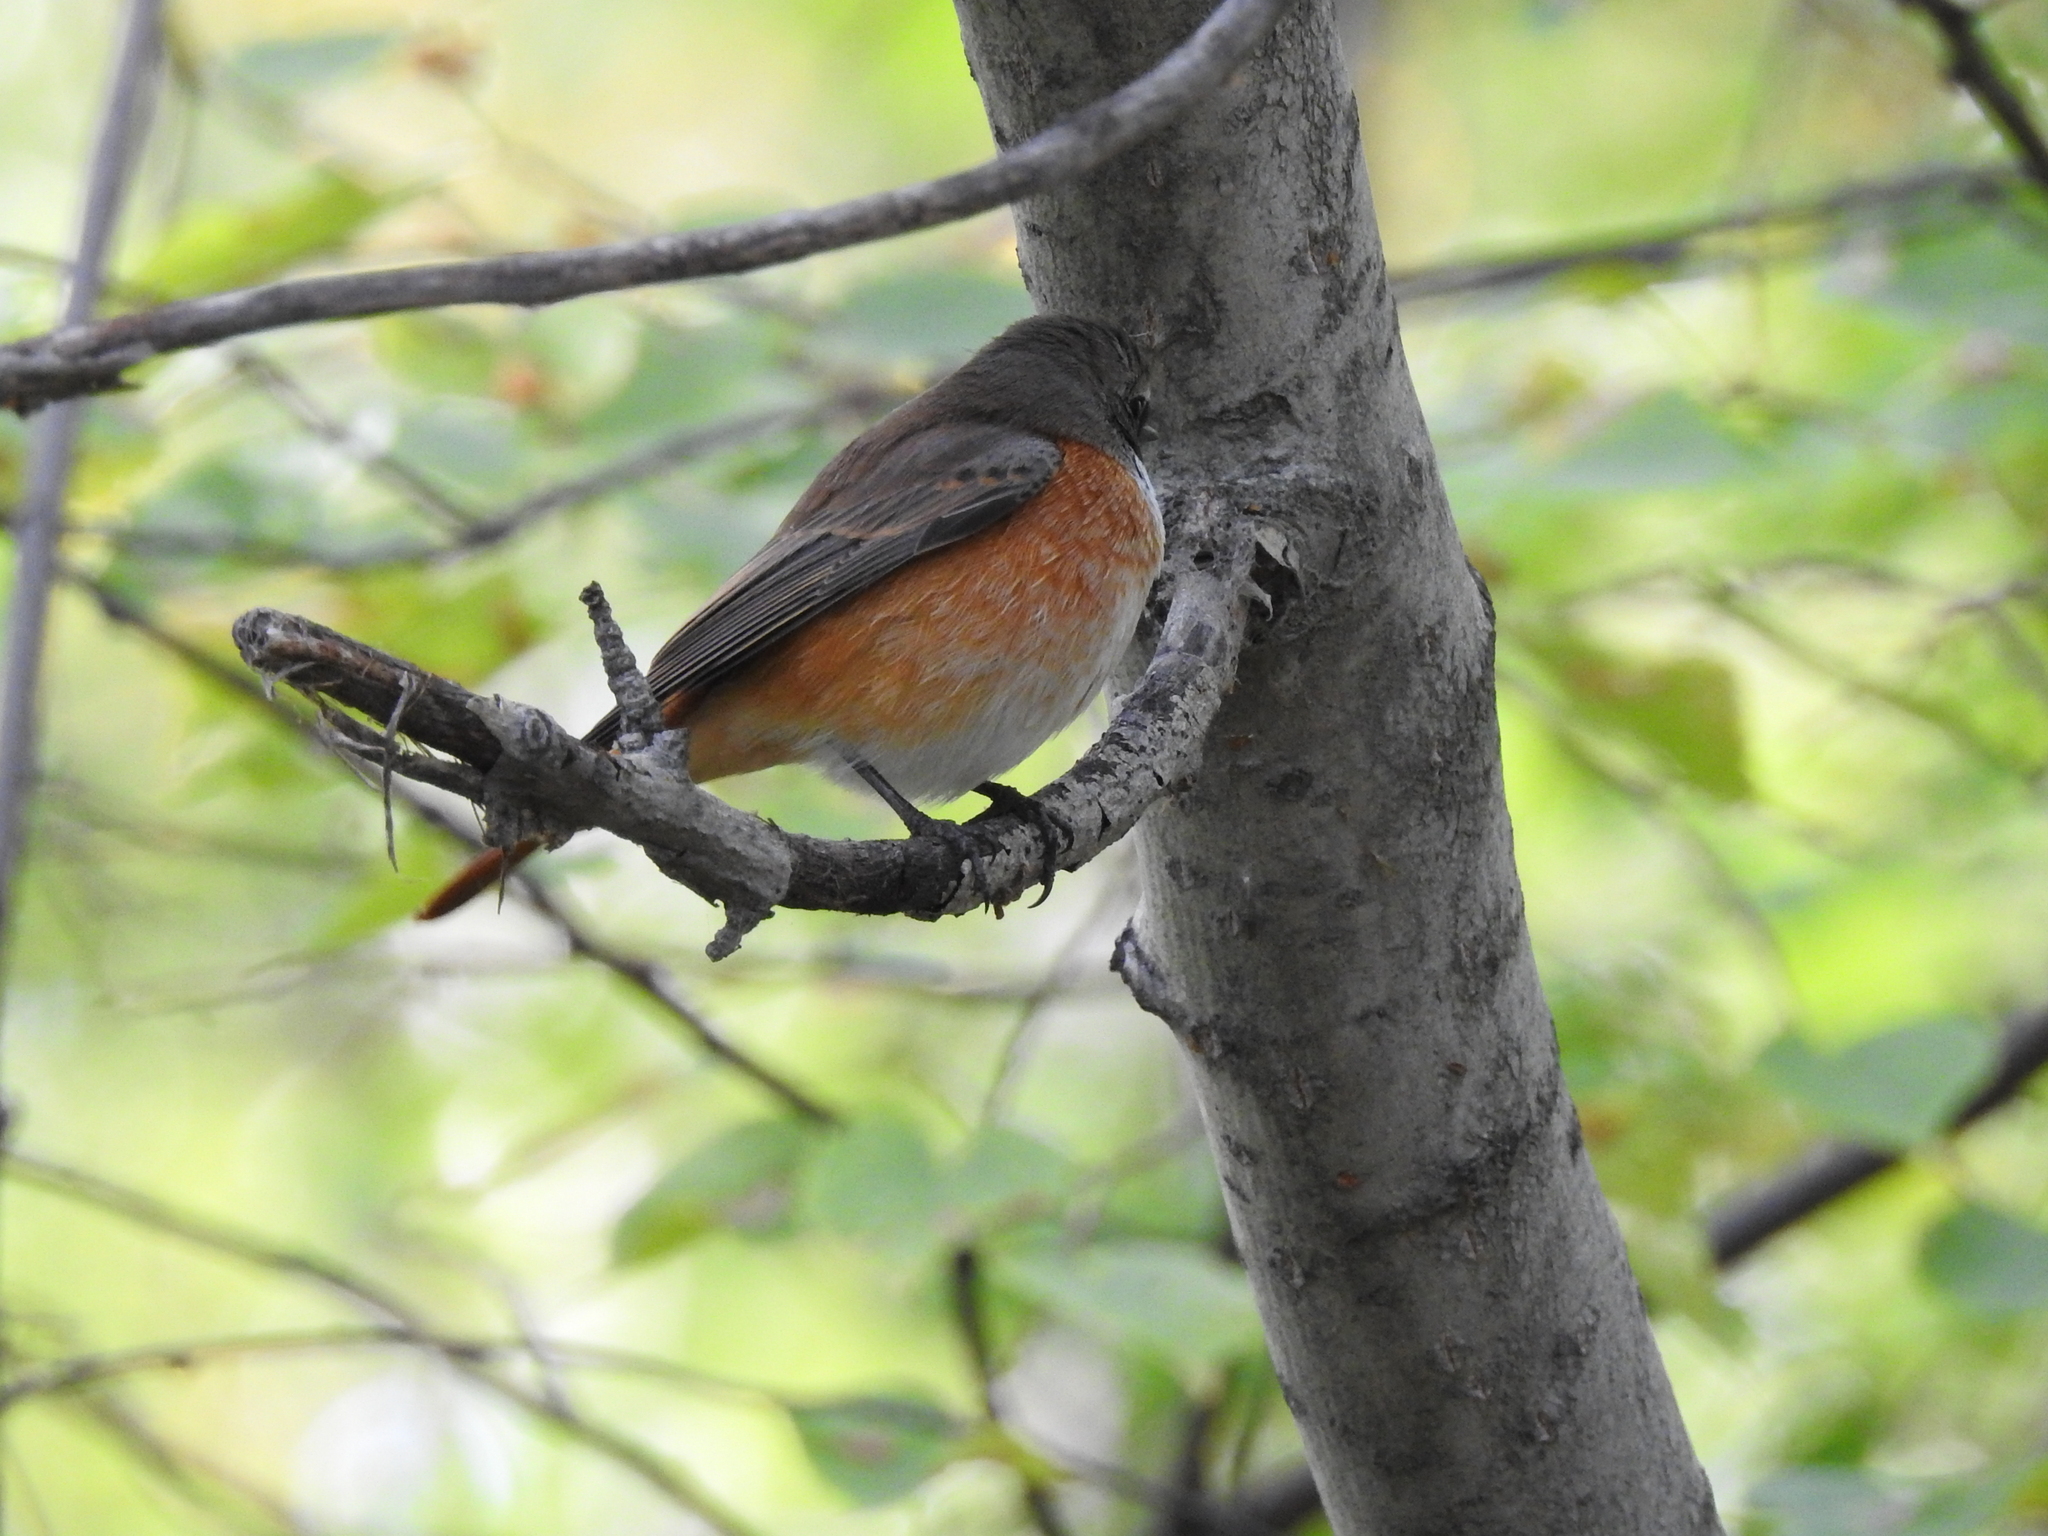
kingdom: Animalia
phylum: Chordata
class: Aves
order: Passeriformes
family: Muscicapidae
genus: Phoenicurus
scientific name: Phoenicurus phoenicurus
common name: Common redstart
